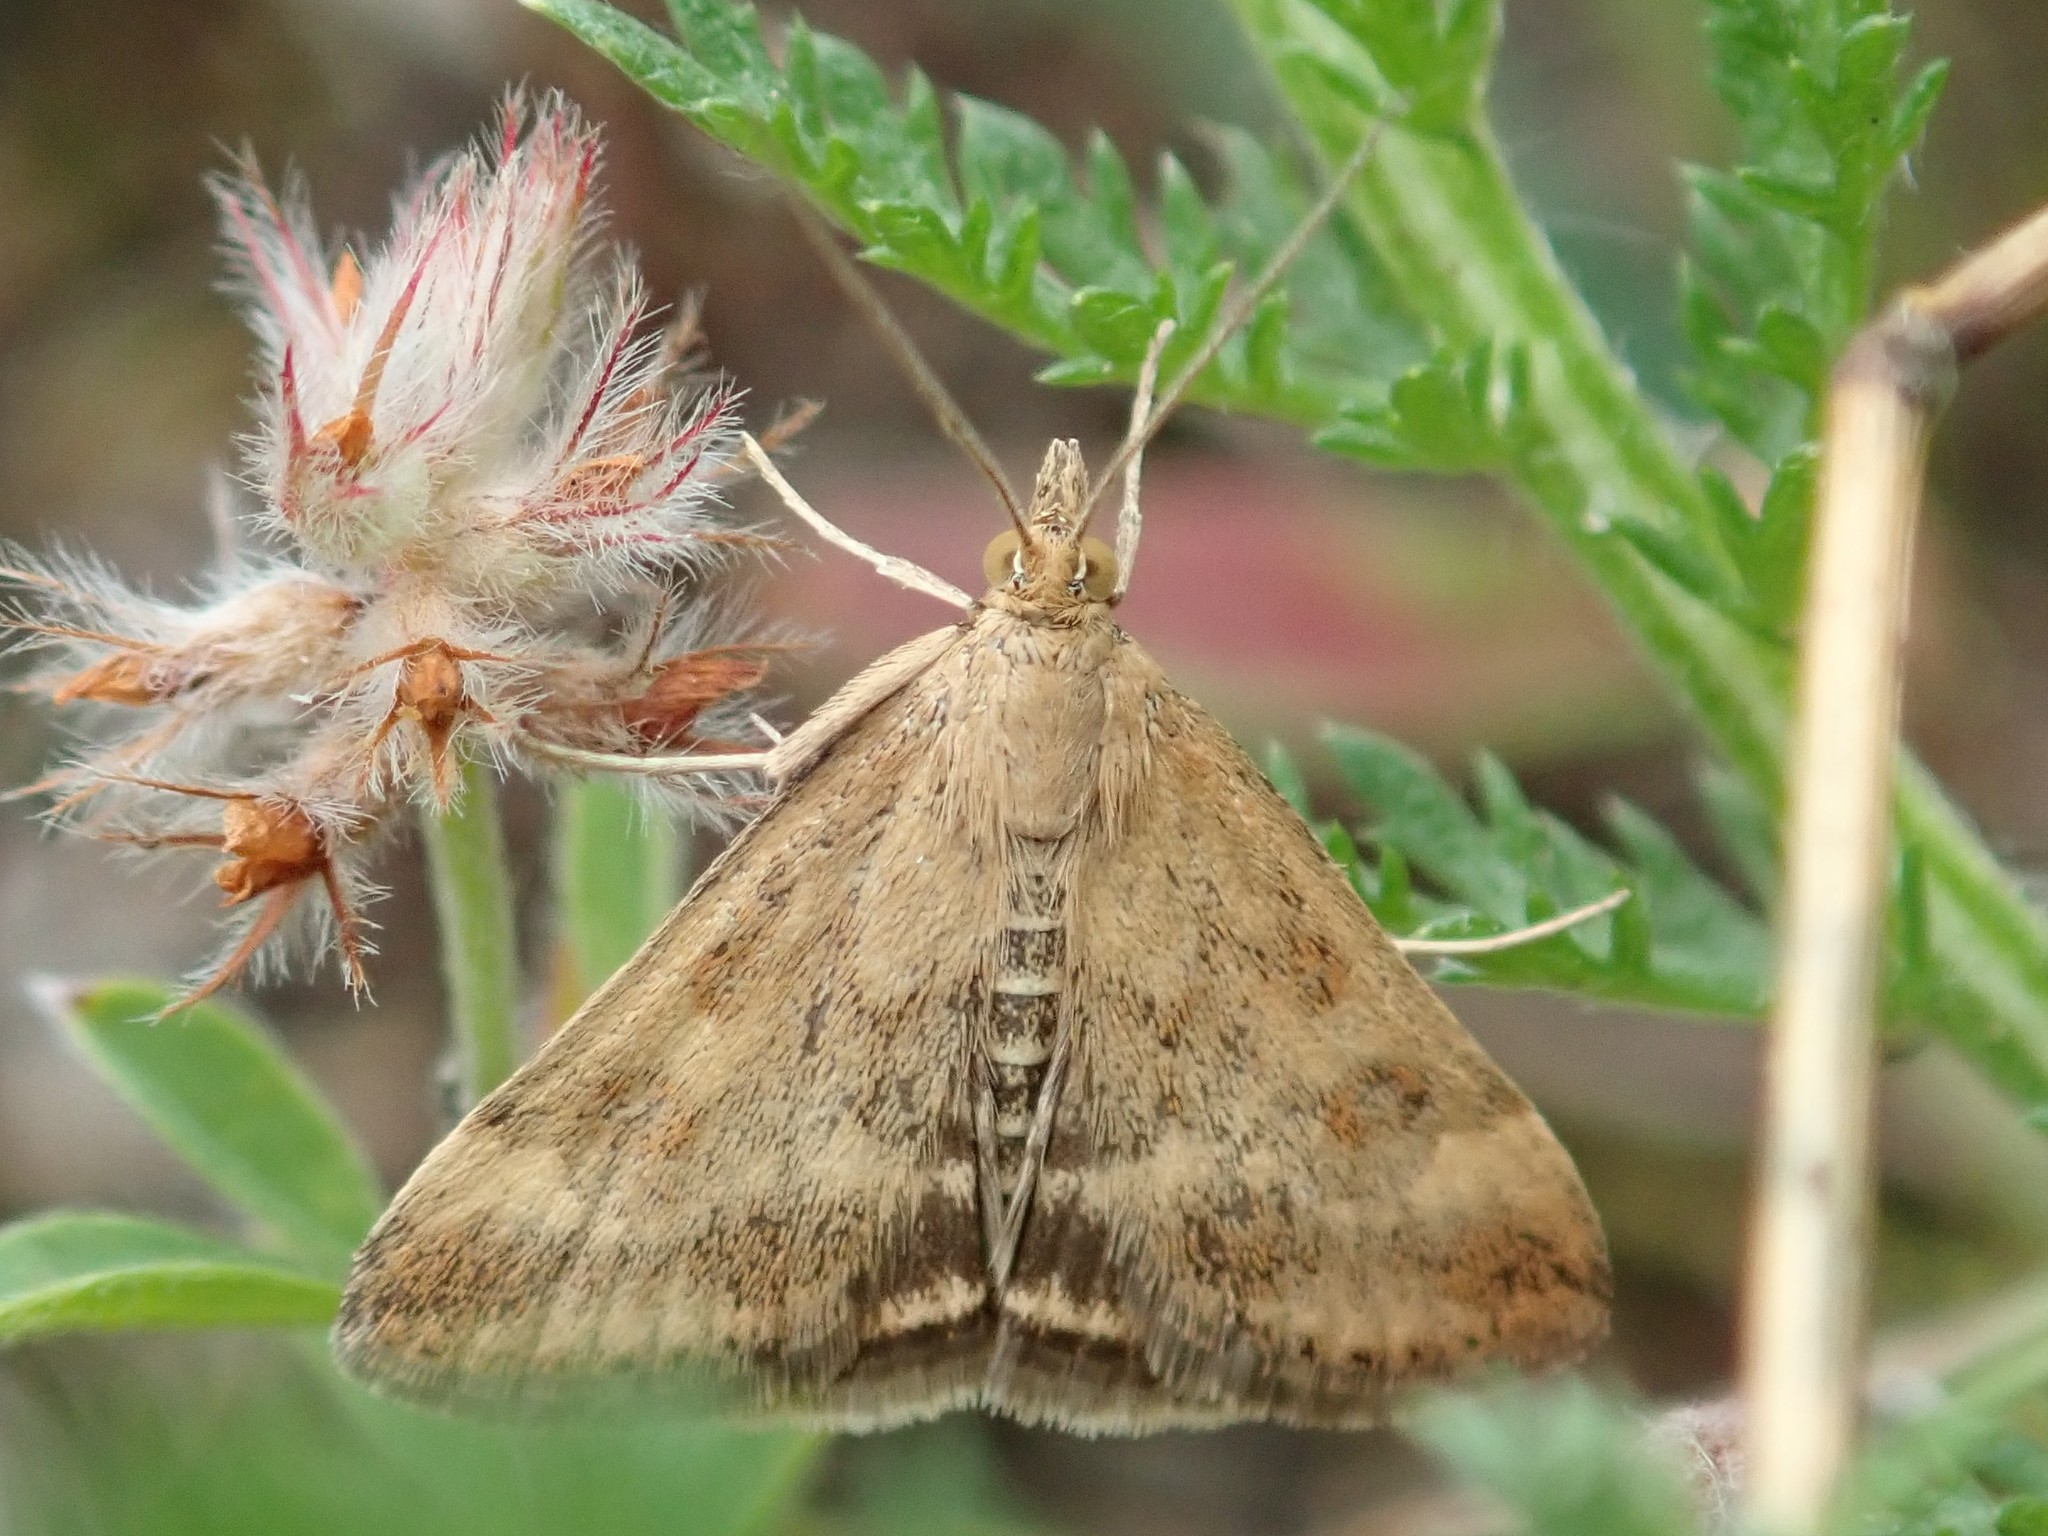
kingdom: Animalia
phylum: Arthropoda
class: Insecta
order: Lepidoptera
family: Crambidae
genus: Pyrausta
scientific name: Pyrausta despicata
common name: Straw-barred pearl
